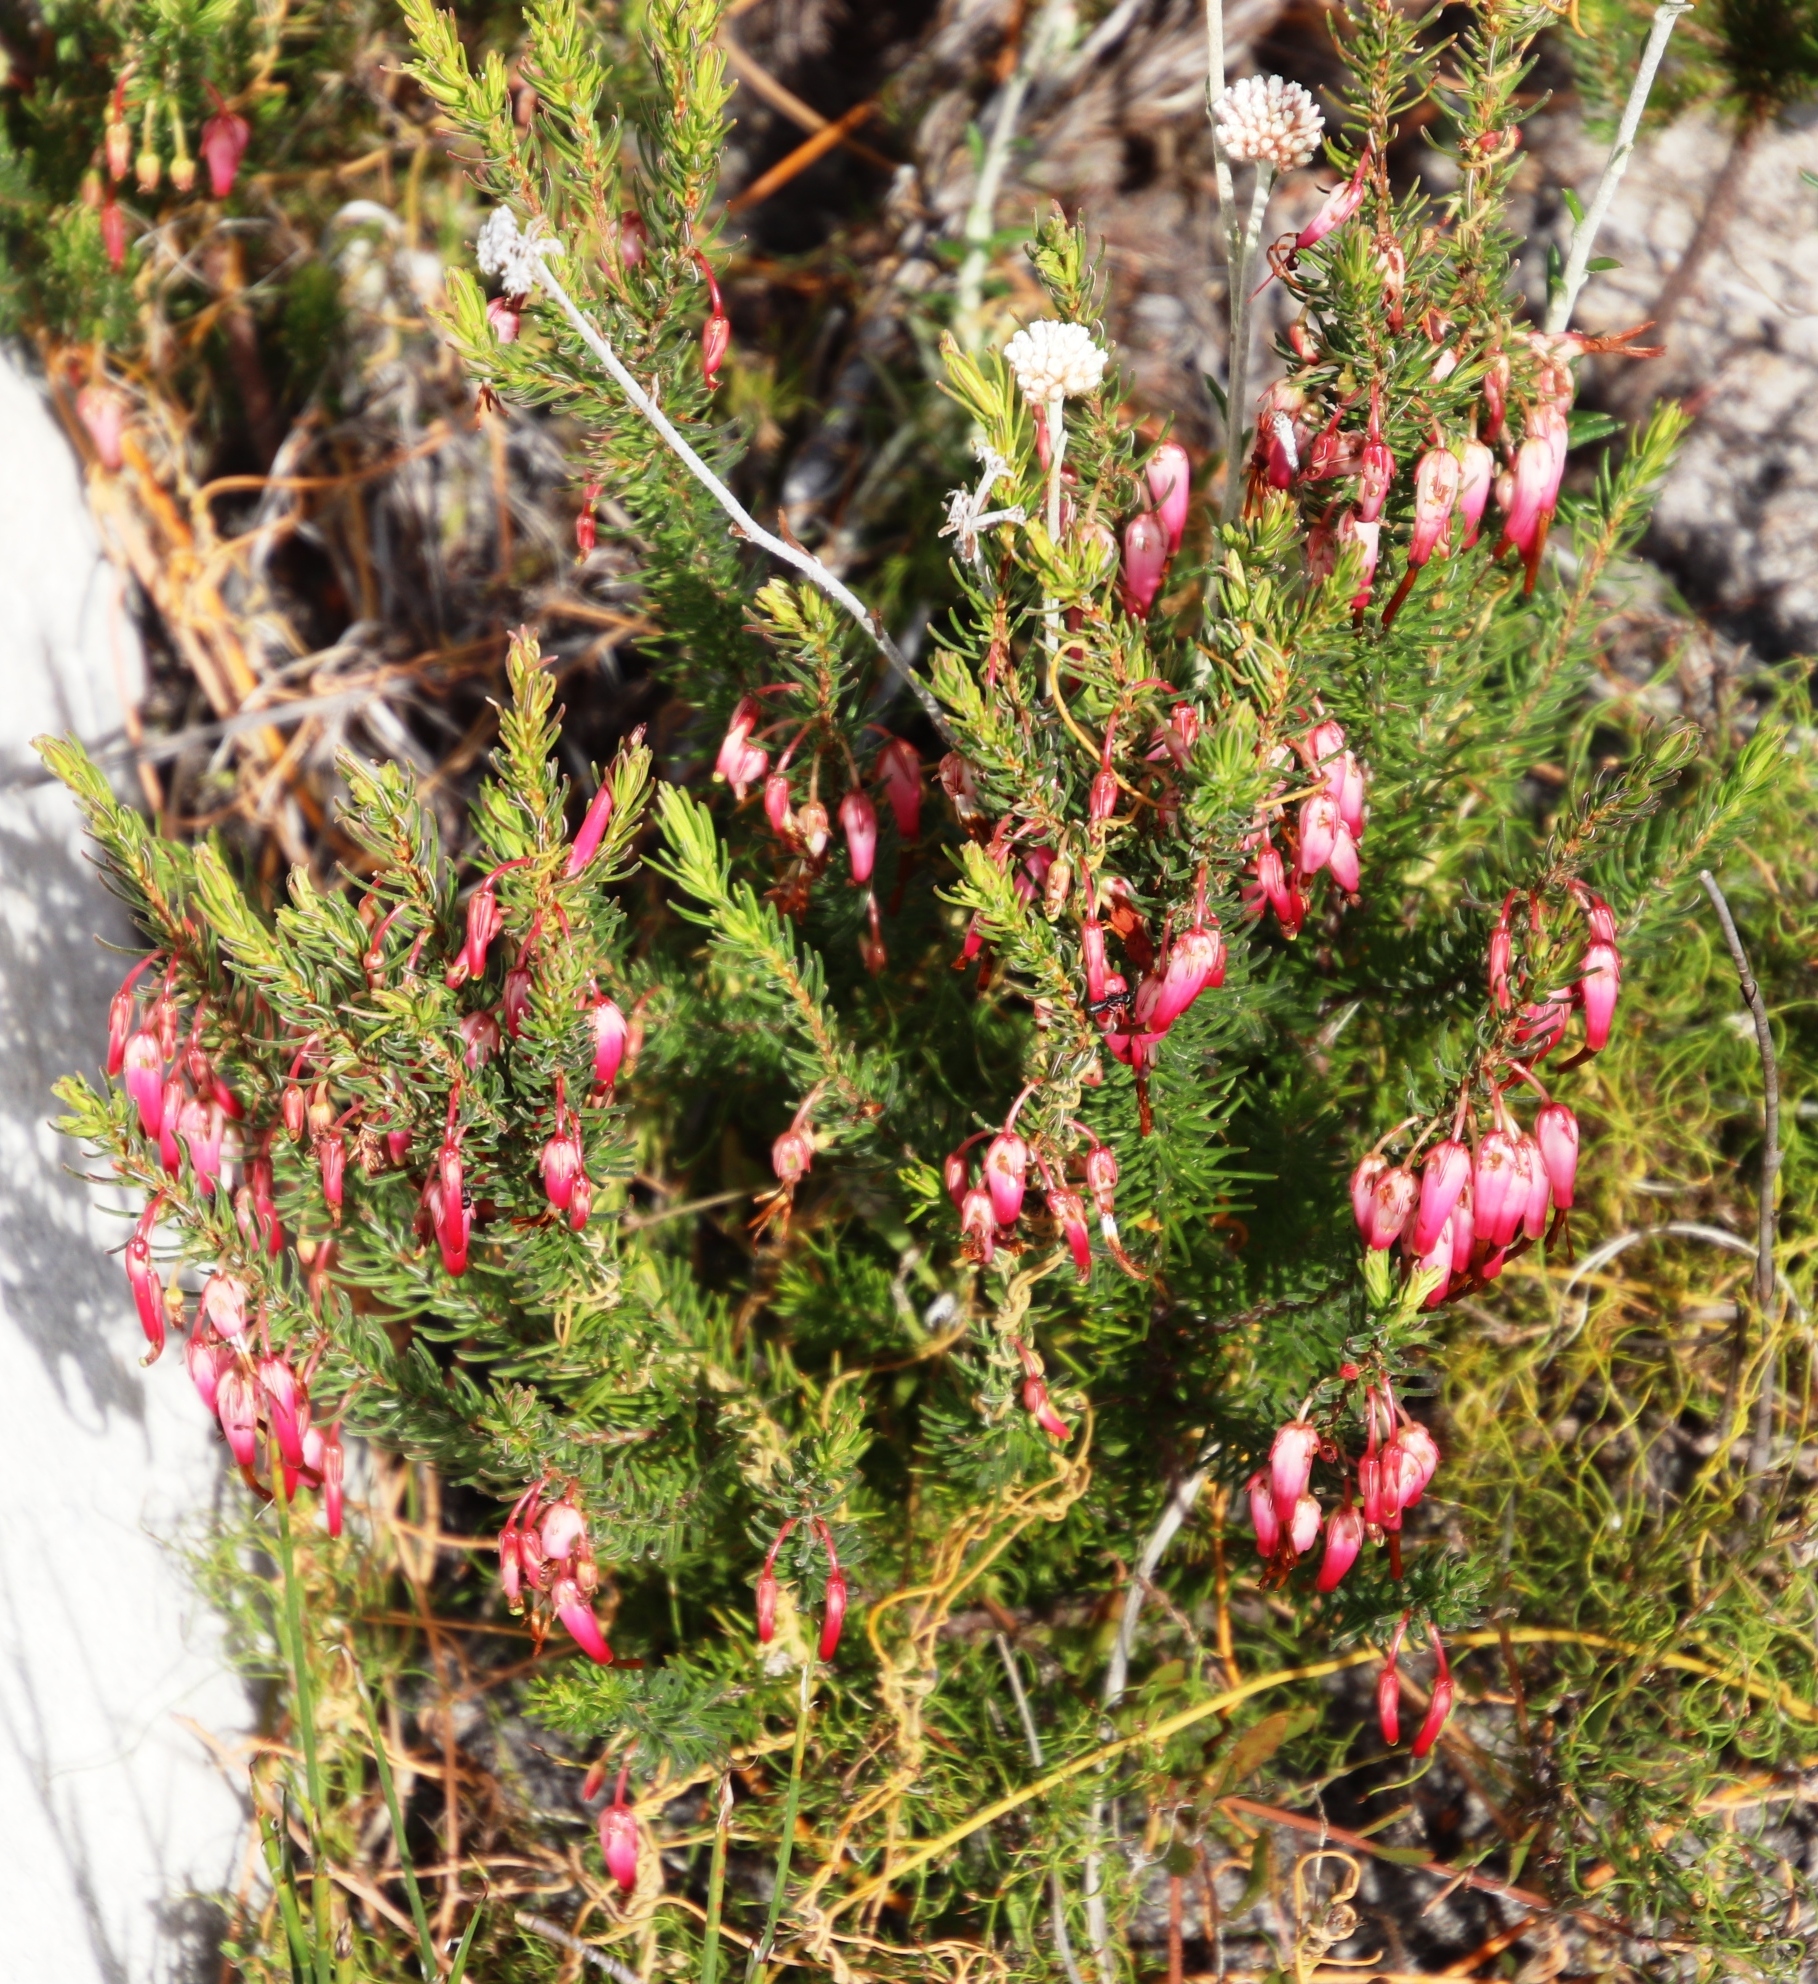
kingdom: Plantae
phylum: Tracheophyta
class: Magnoliopsida
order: Ericales
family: Ericaceae
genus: Erica
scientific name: Erica plukenetii
